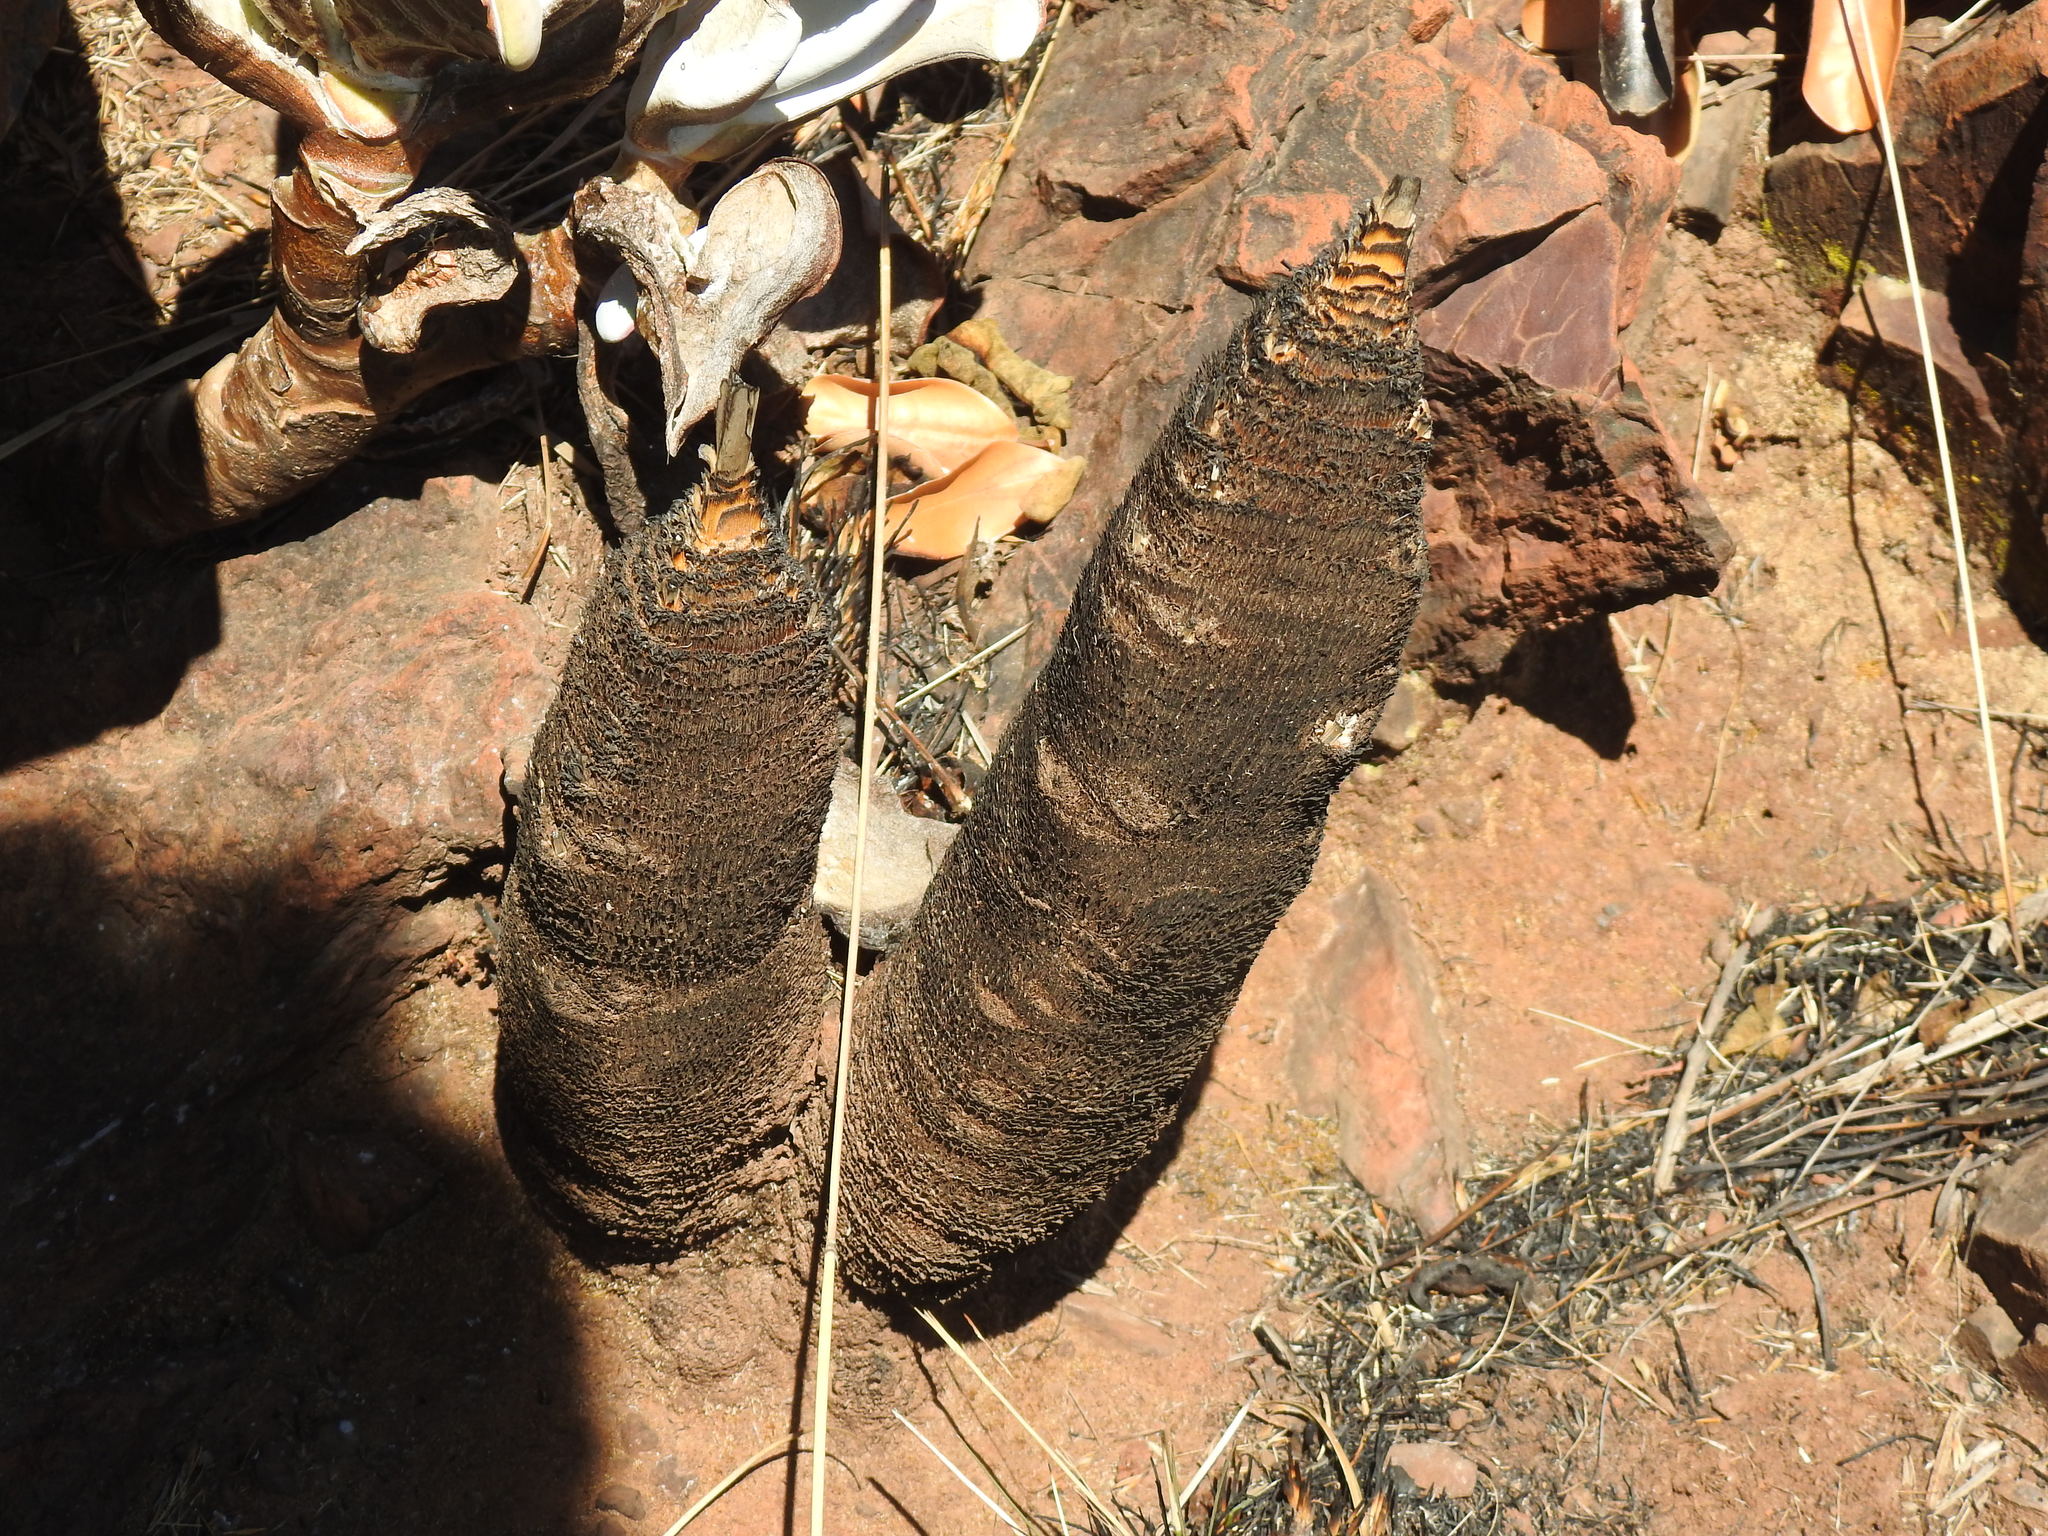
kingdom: Plantae
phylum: Tracheophyta
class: Liliopsida
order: Pandanales
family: Velloziaceae
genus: Xerophyta
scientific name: Xerophyta retinervis
